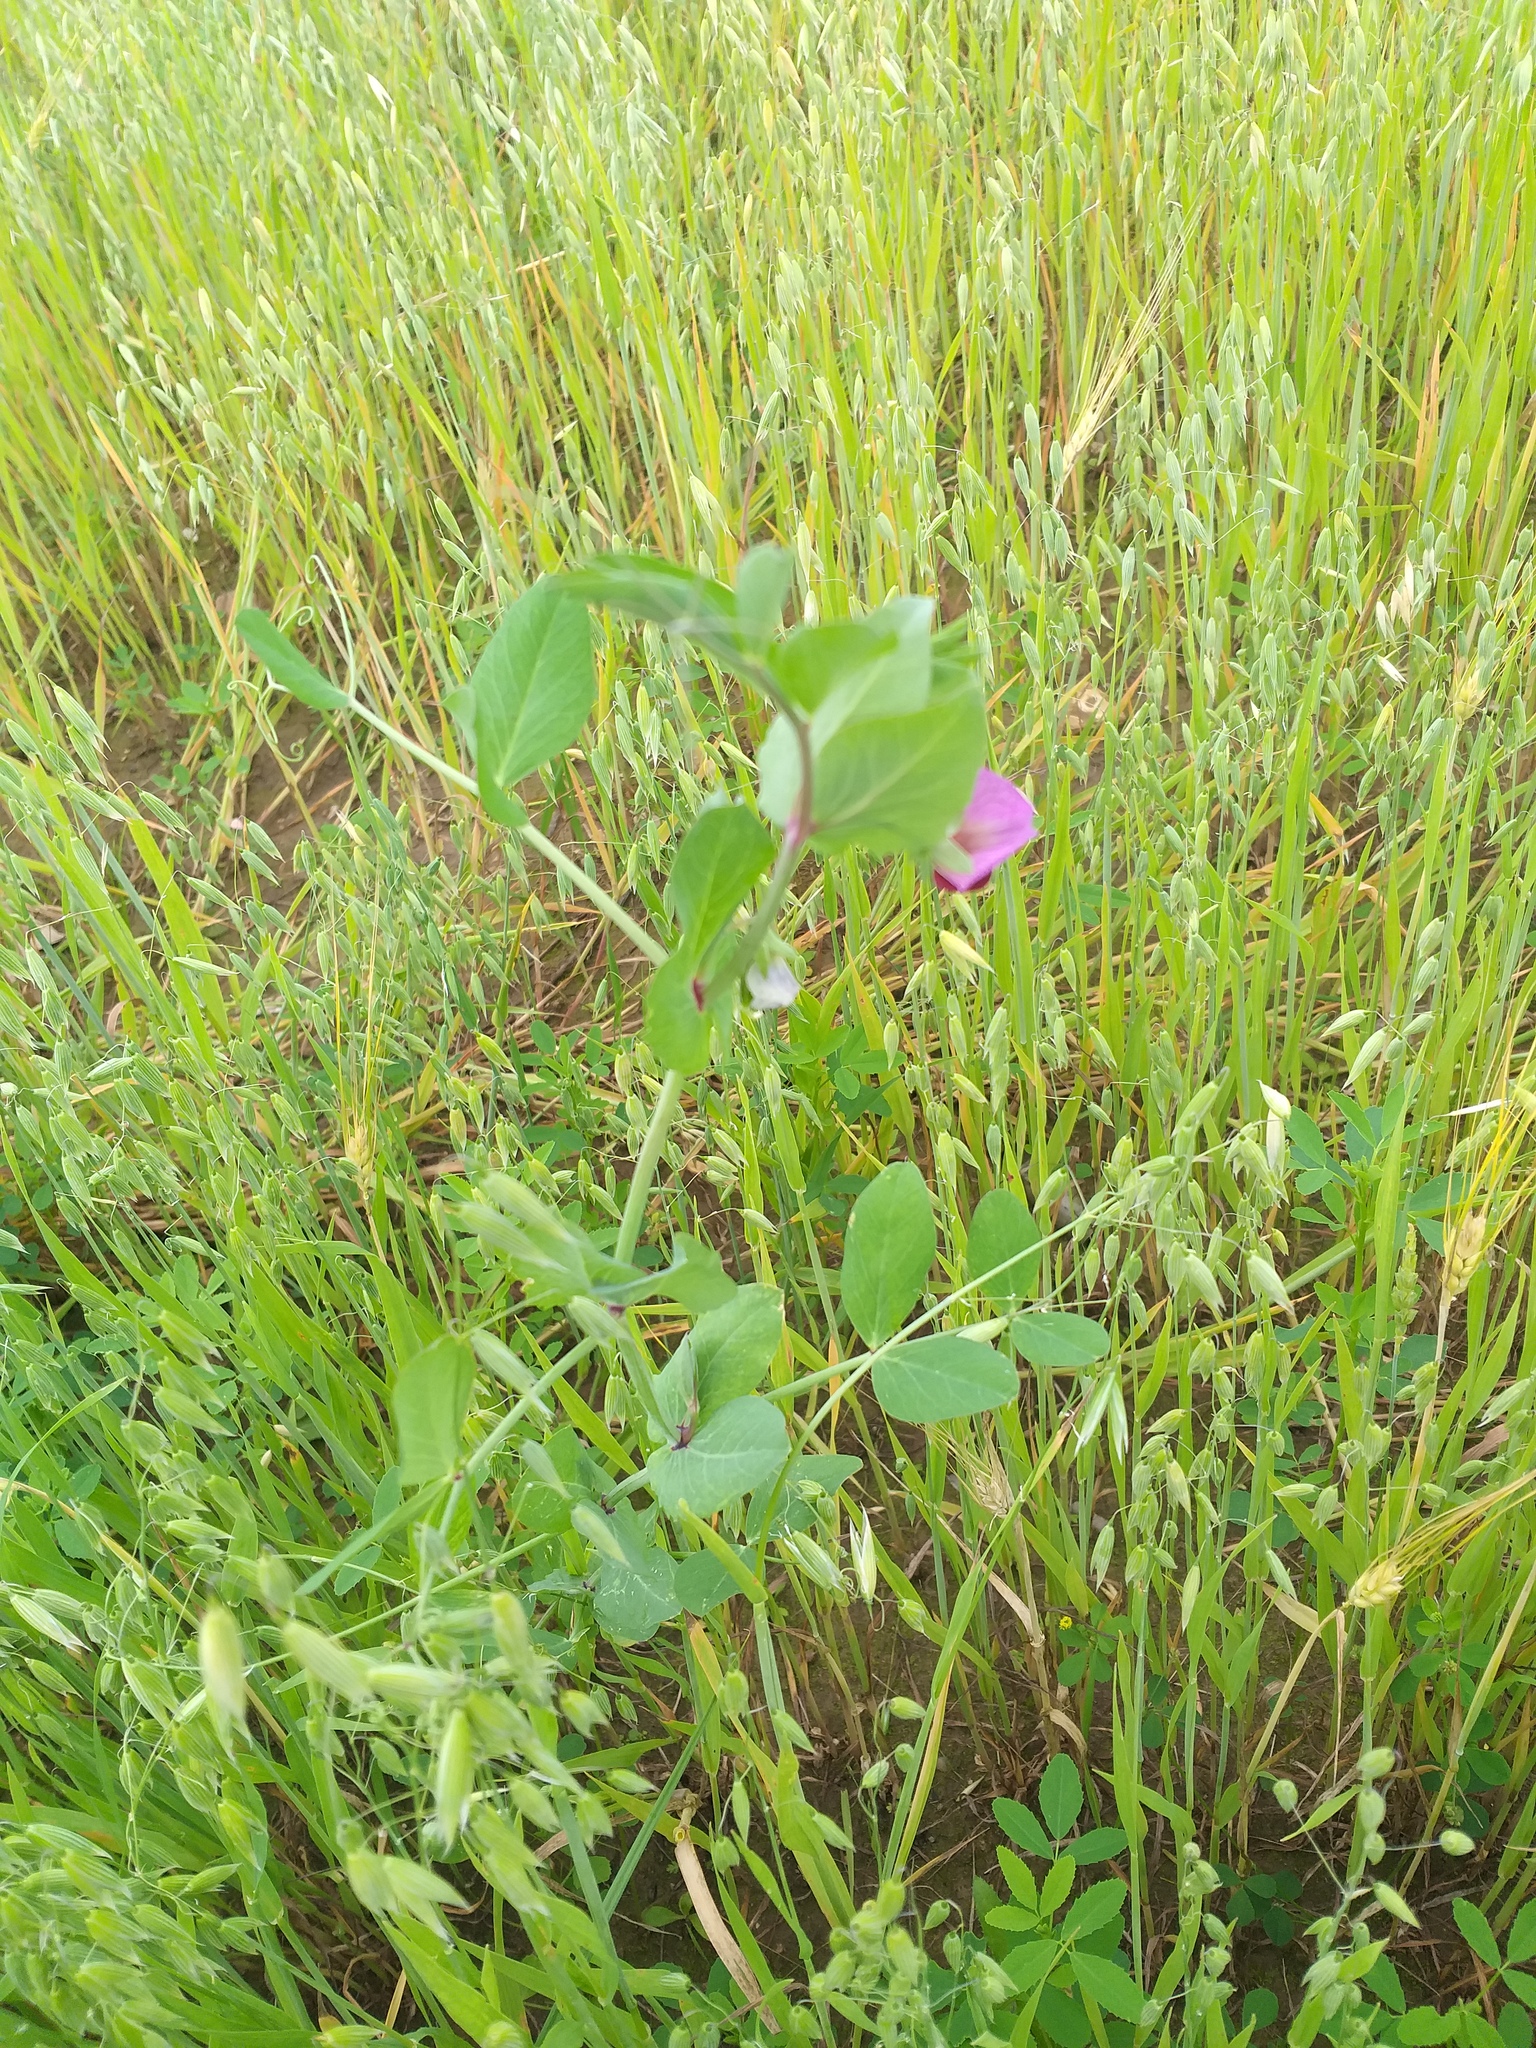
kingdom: Plantae
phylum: Tracheophyta
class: Magnoliopsida
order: Fabales
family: Fabaceae
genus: Lathyrus
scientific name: Lathyrus oleraceus
